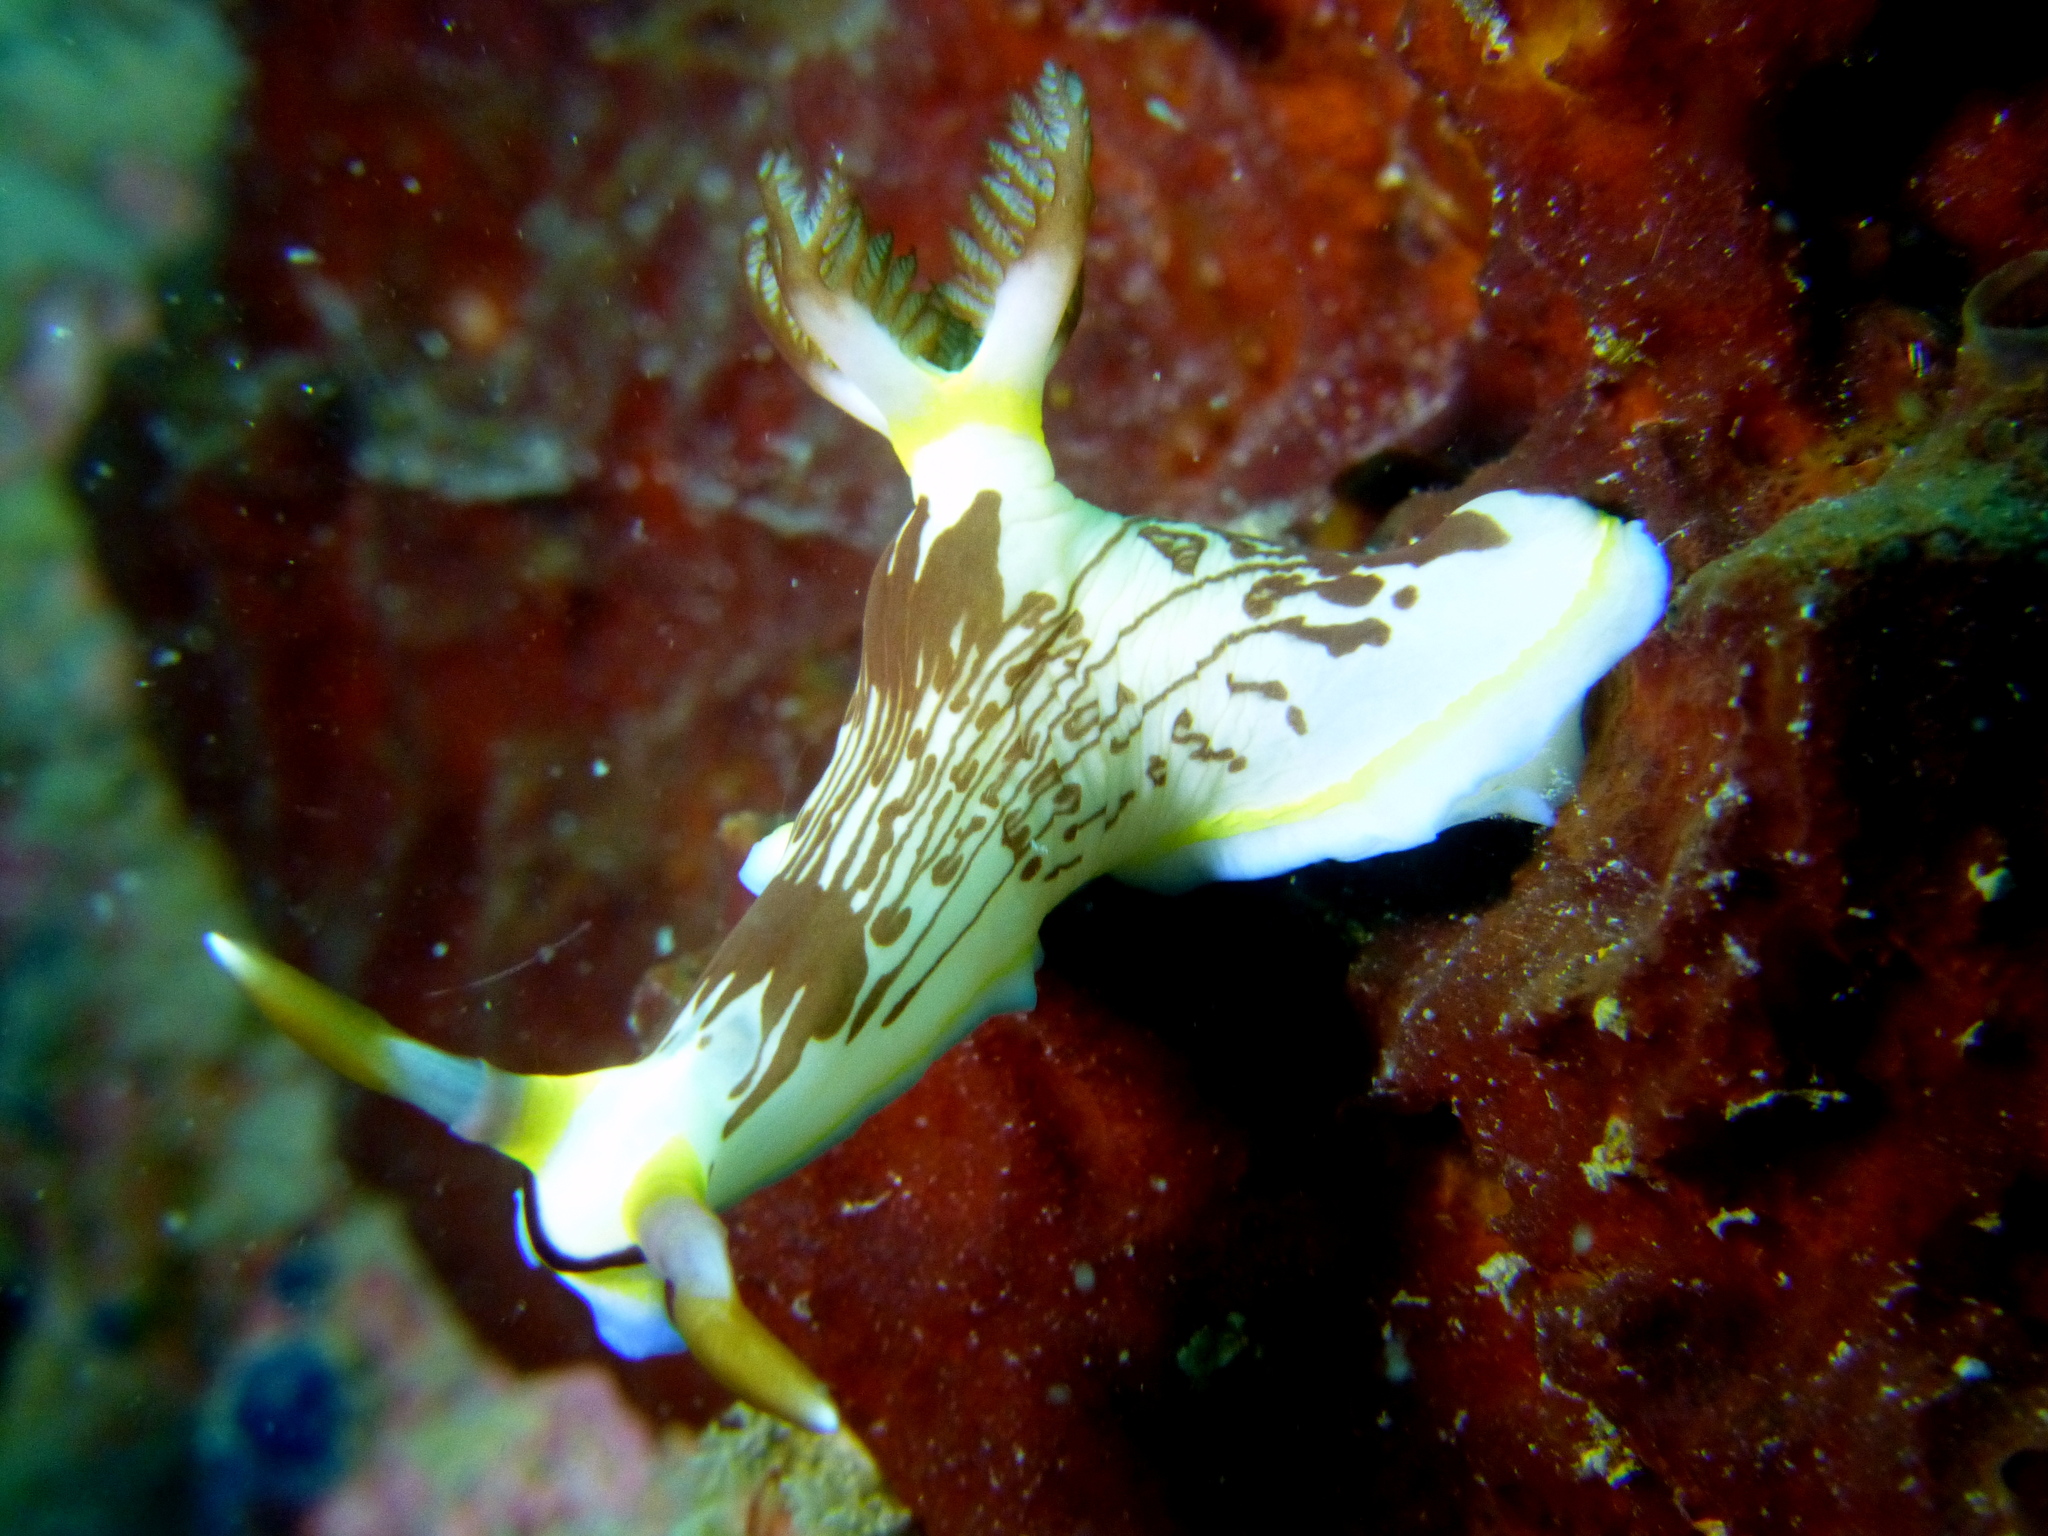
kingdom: Animalia
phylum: Mollusca
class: Gastropoda
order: Nudibranchia
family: Polyceridae
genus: Nembrotha
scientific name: Nembrotha lineolata
